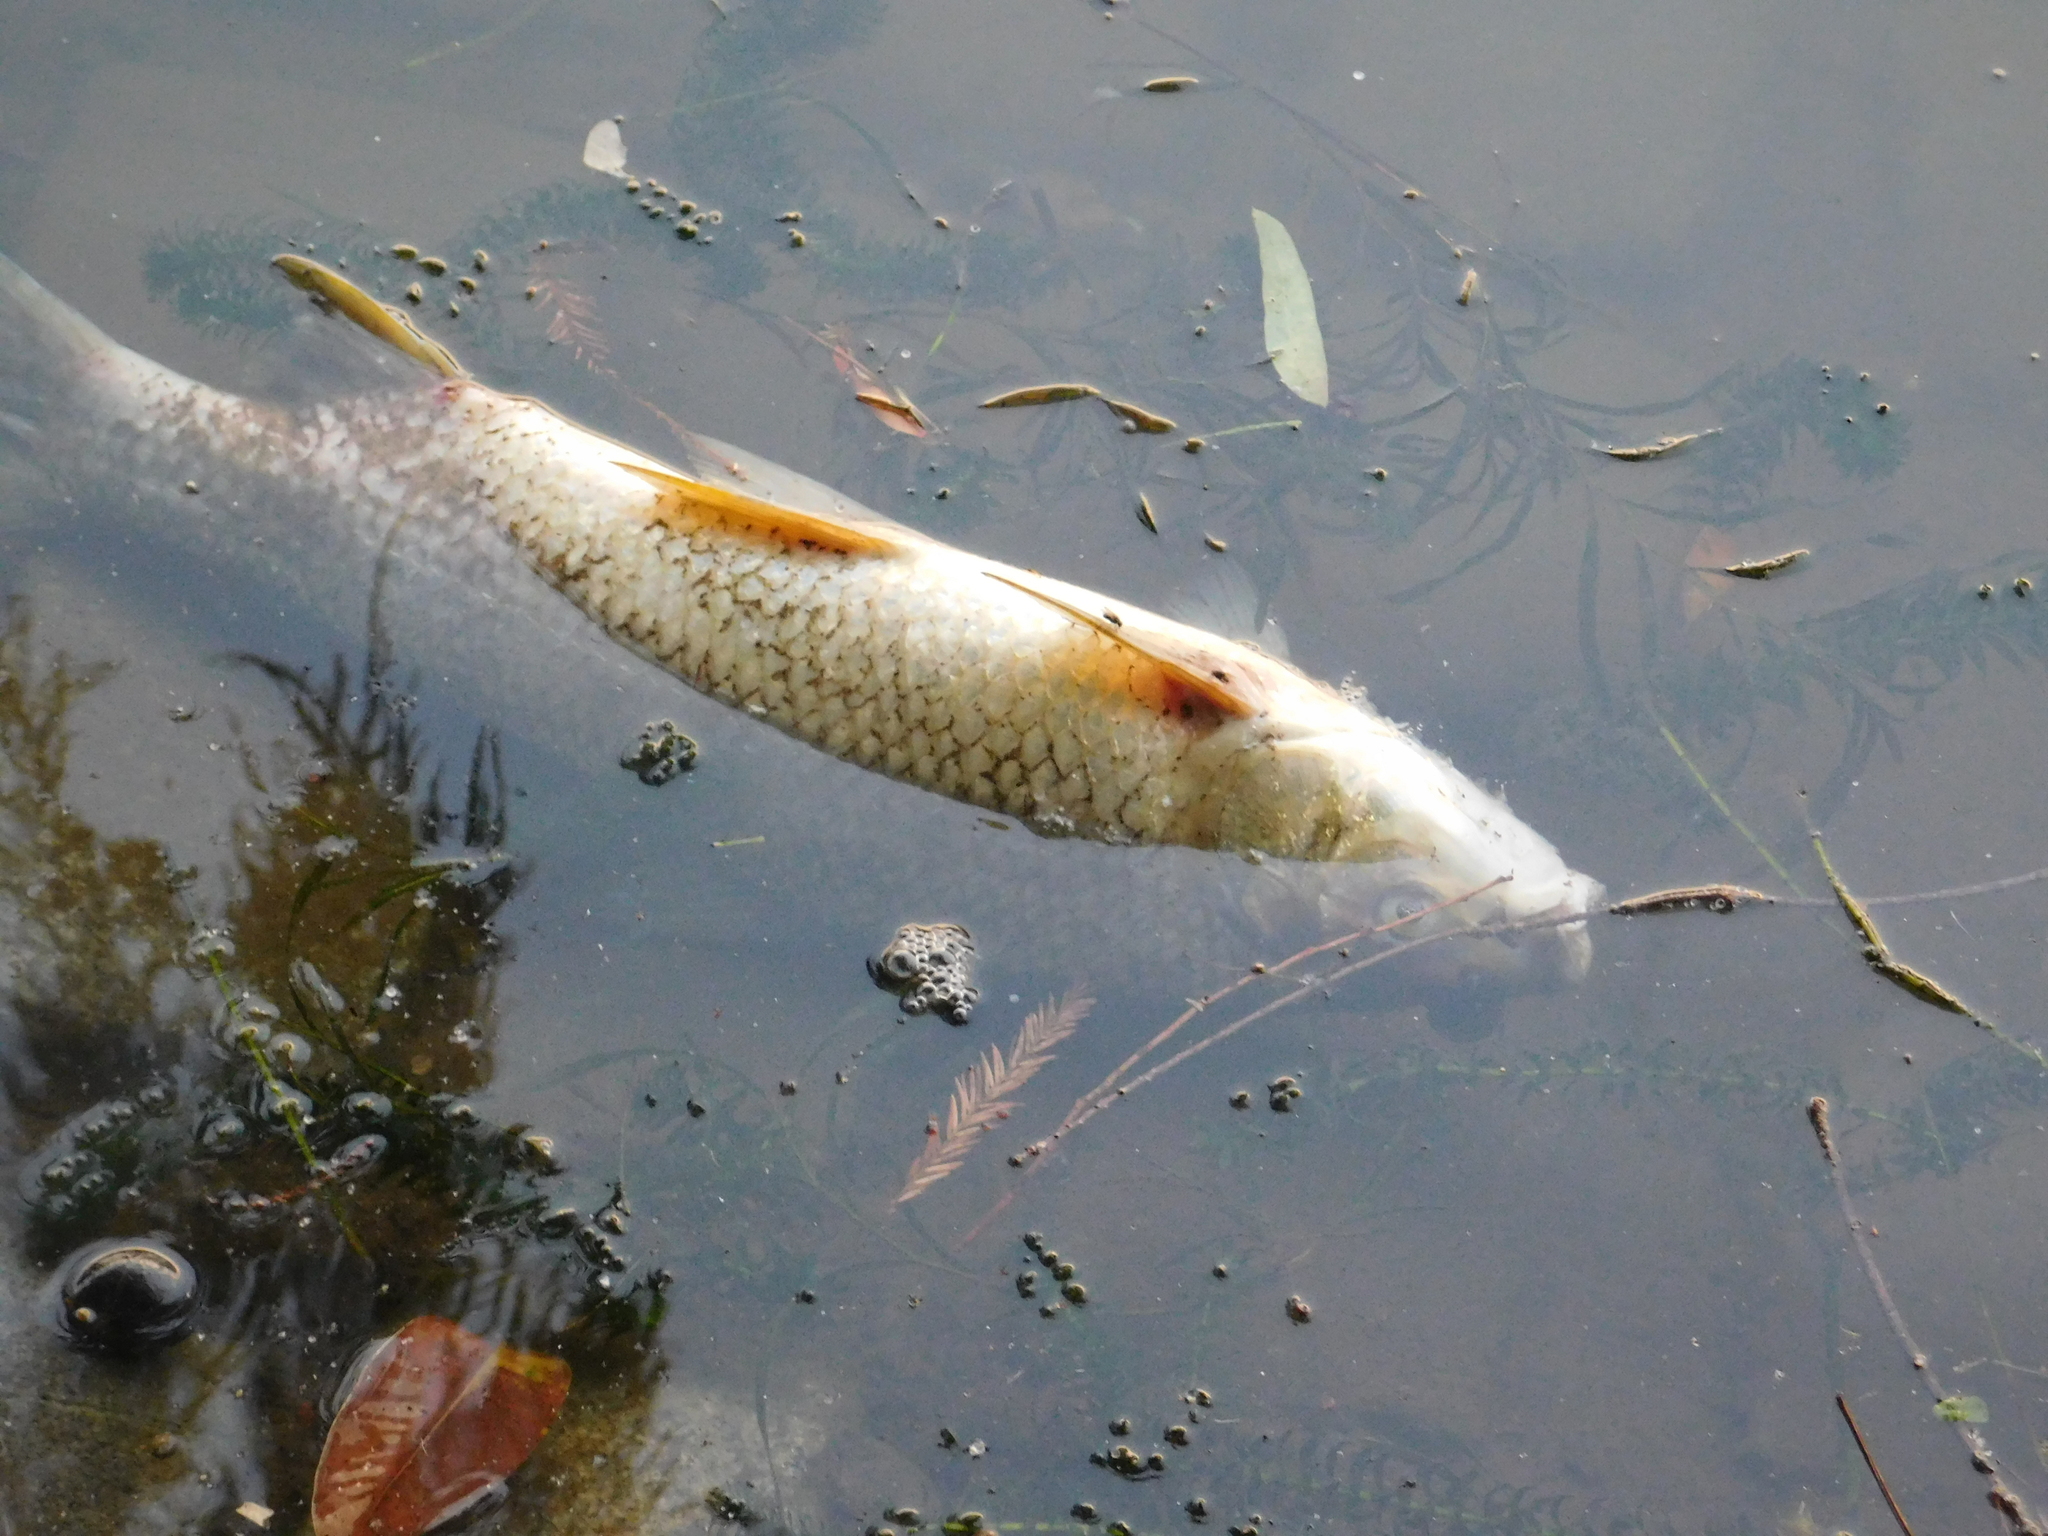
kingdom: Animalia
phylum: Chordata
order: Characiformes
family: Prochilodontidae
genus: Prochilodus
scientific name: Prochilodus lineatus
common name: Curimbata
